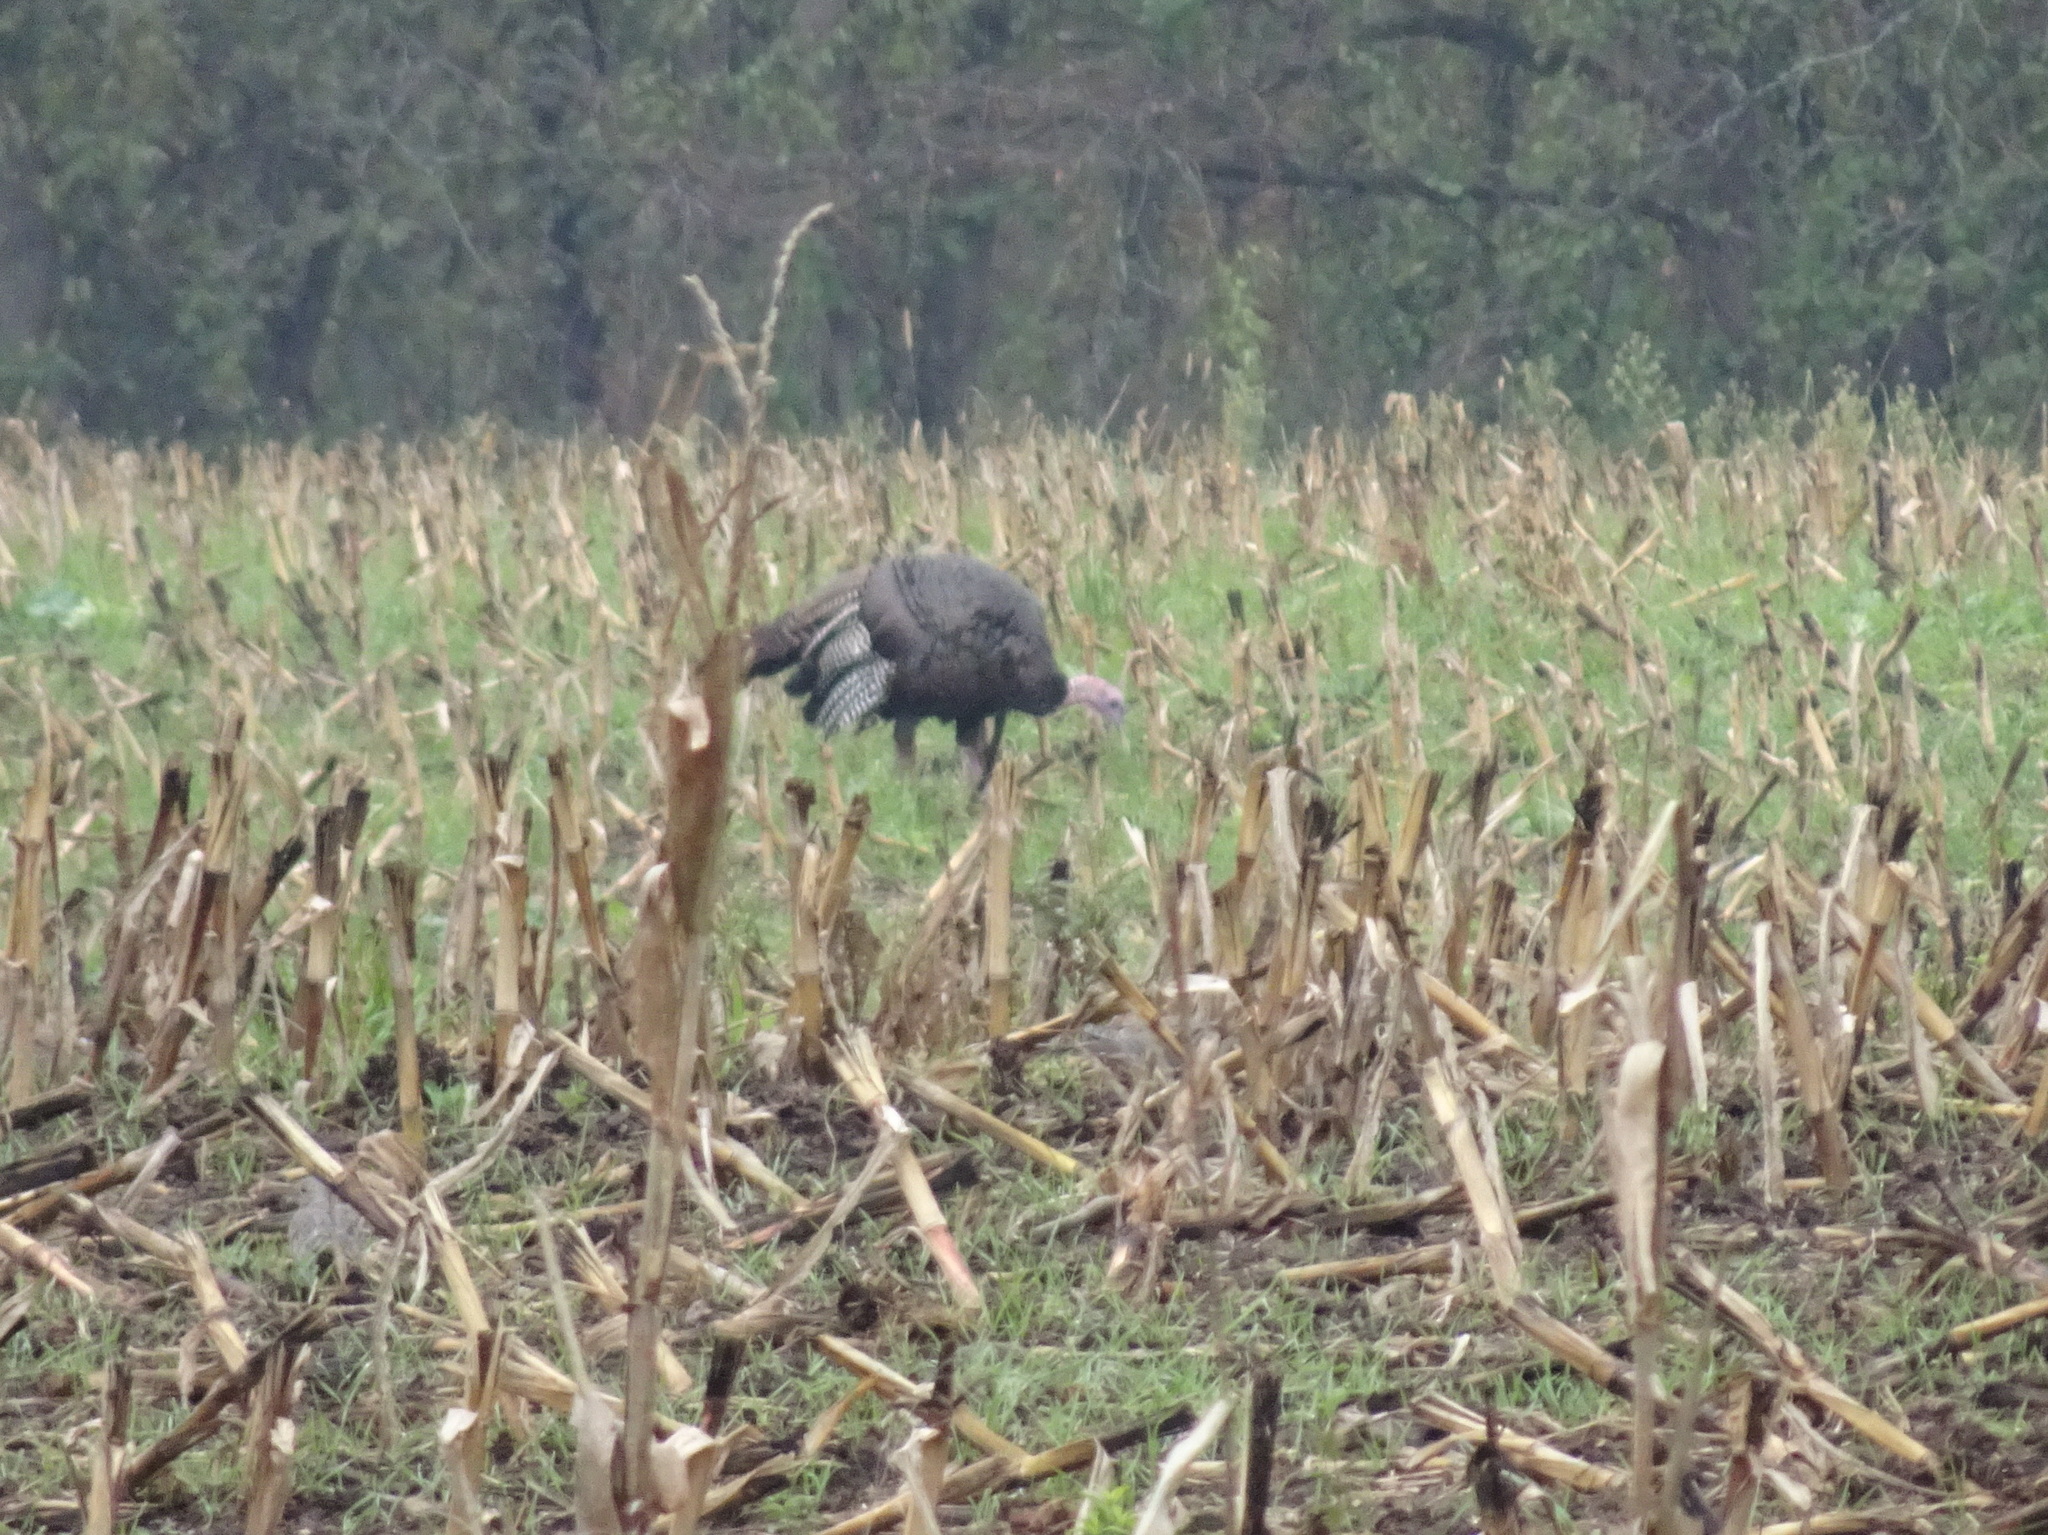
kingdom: Animalia
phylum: Chordata
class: Aves
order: Galliformes
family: Phasianidae
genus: Meleagris
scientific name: Meleagris gallopavo
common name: Wild turkey
